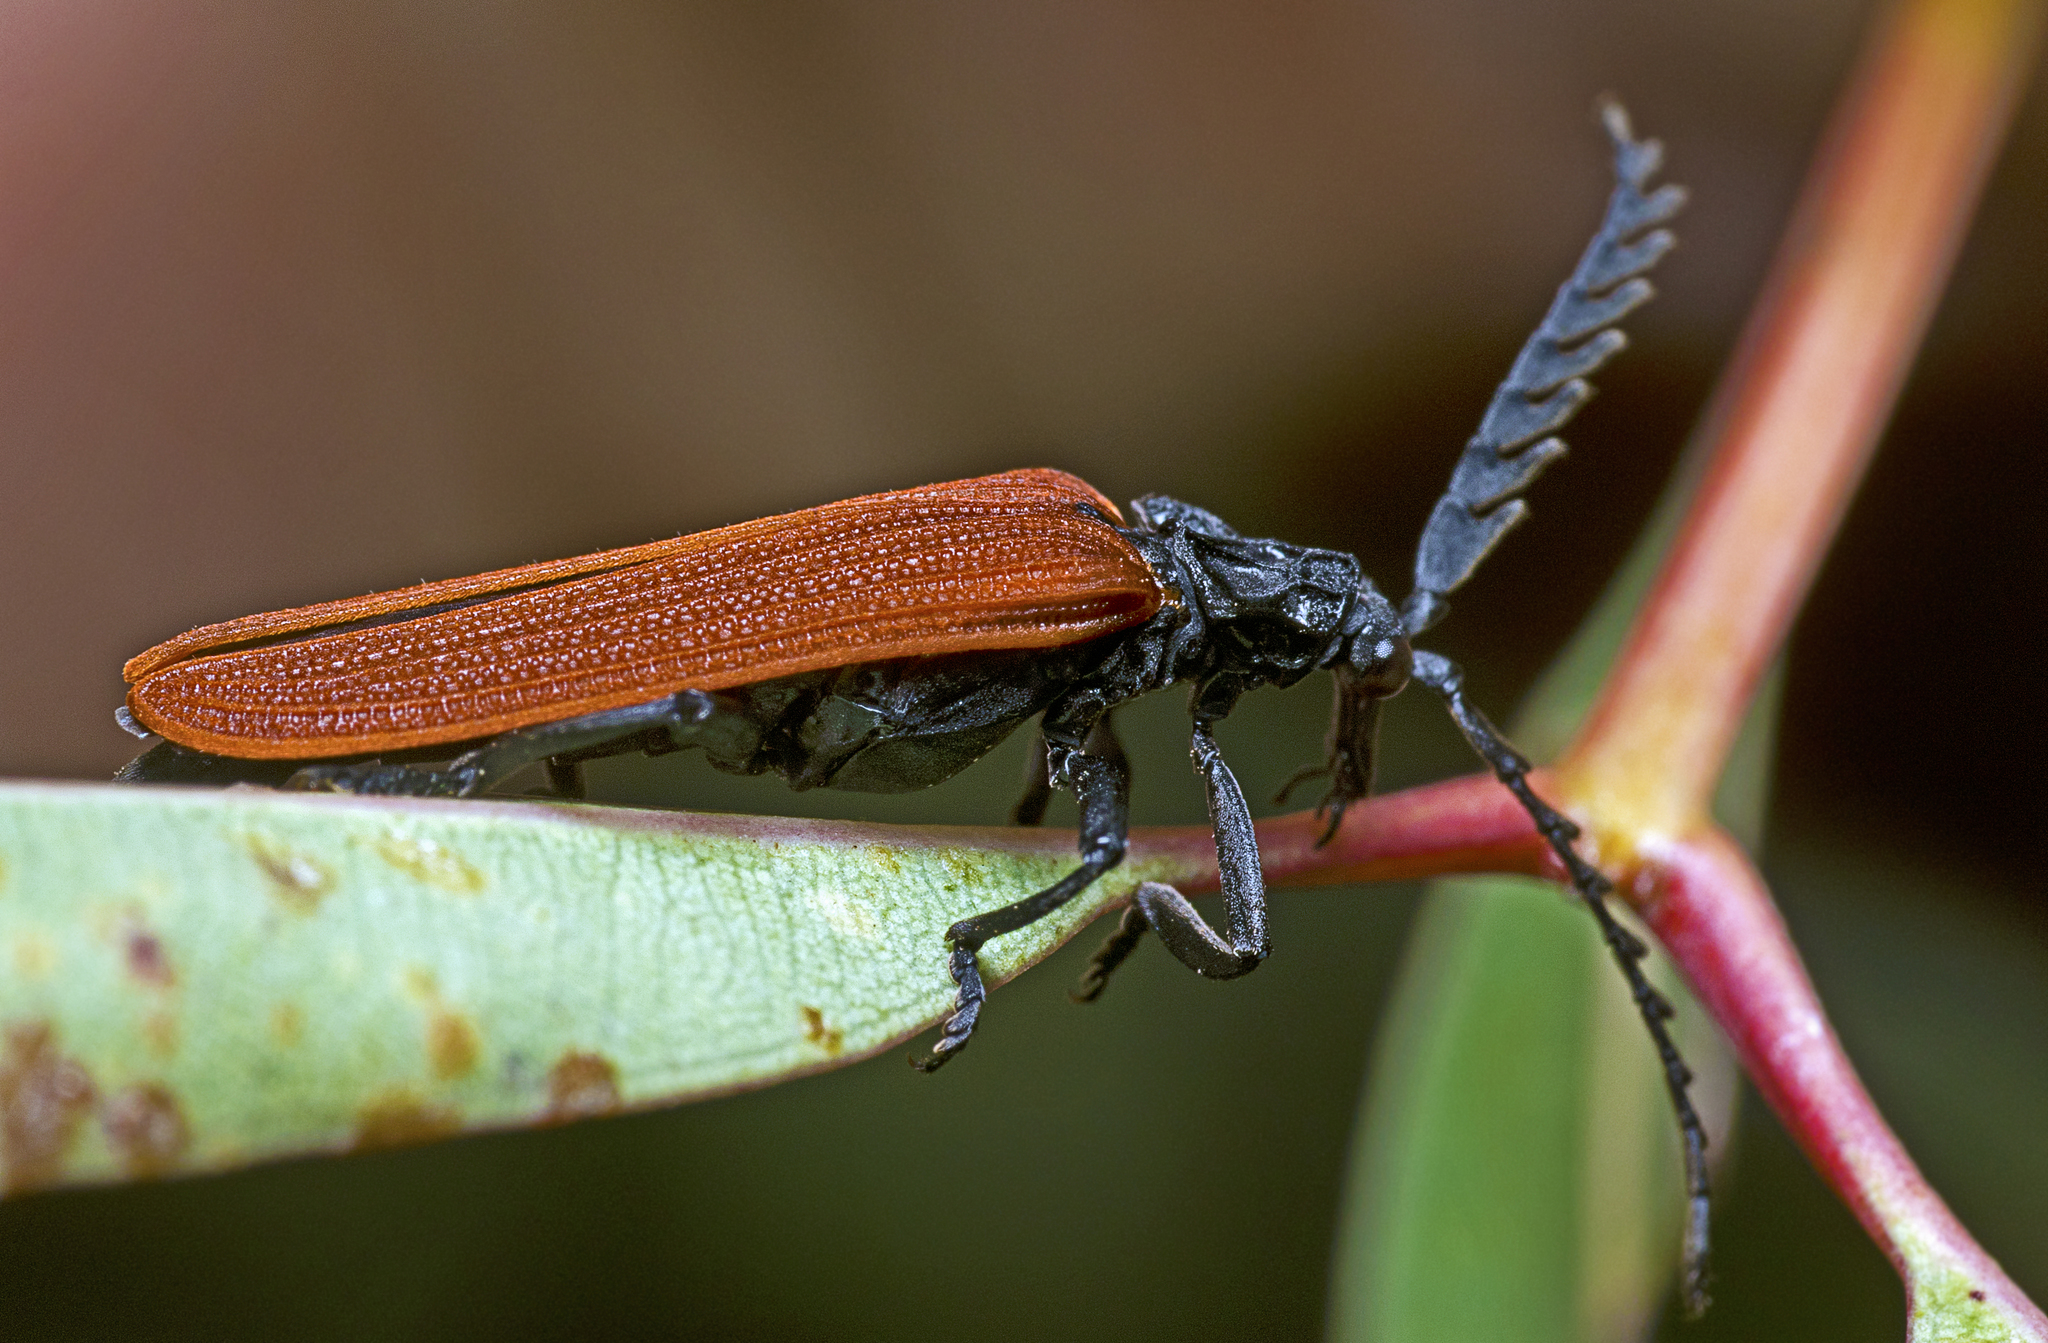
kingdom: Animalia
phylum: Arthropoda
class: Insecta
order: Coleoptera
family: Lycidae
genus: Porrostoma
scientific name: Porrostoma rhipidium
